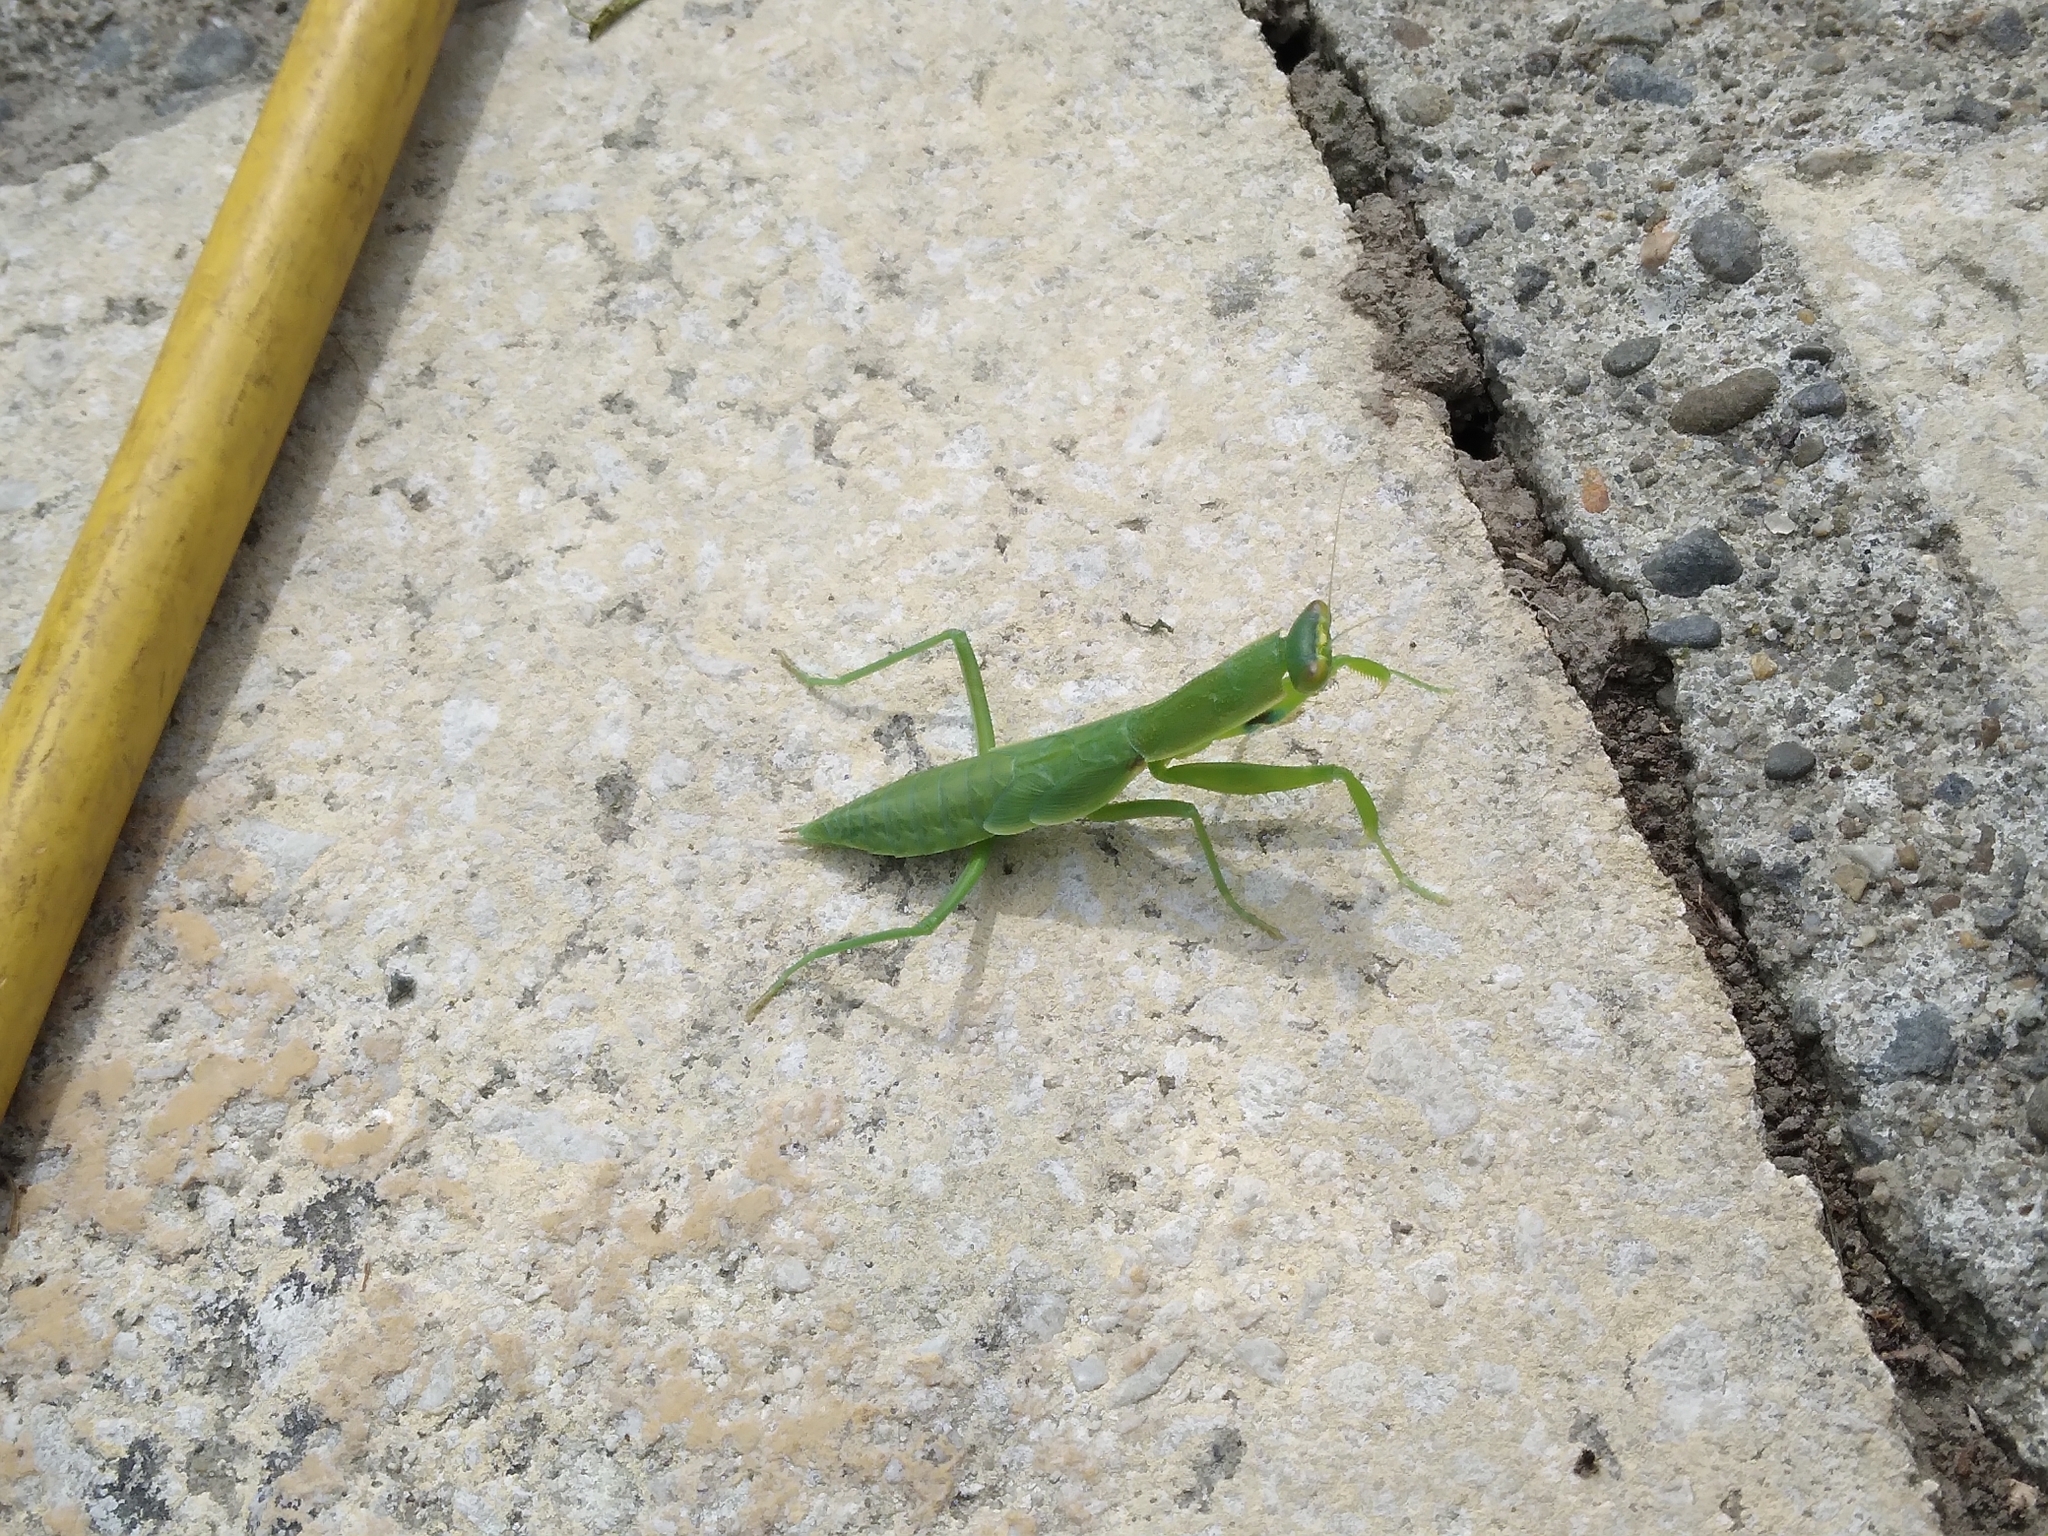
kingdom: Animalia
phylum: Arthropoda
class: Insecta
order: Mantodea
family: Mantidae
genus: Orthodera
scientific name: Orthodera novaezealandiae
